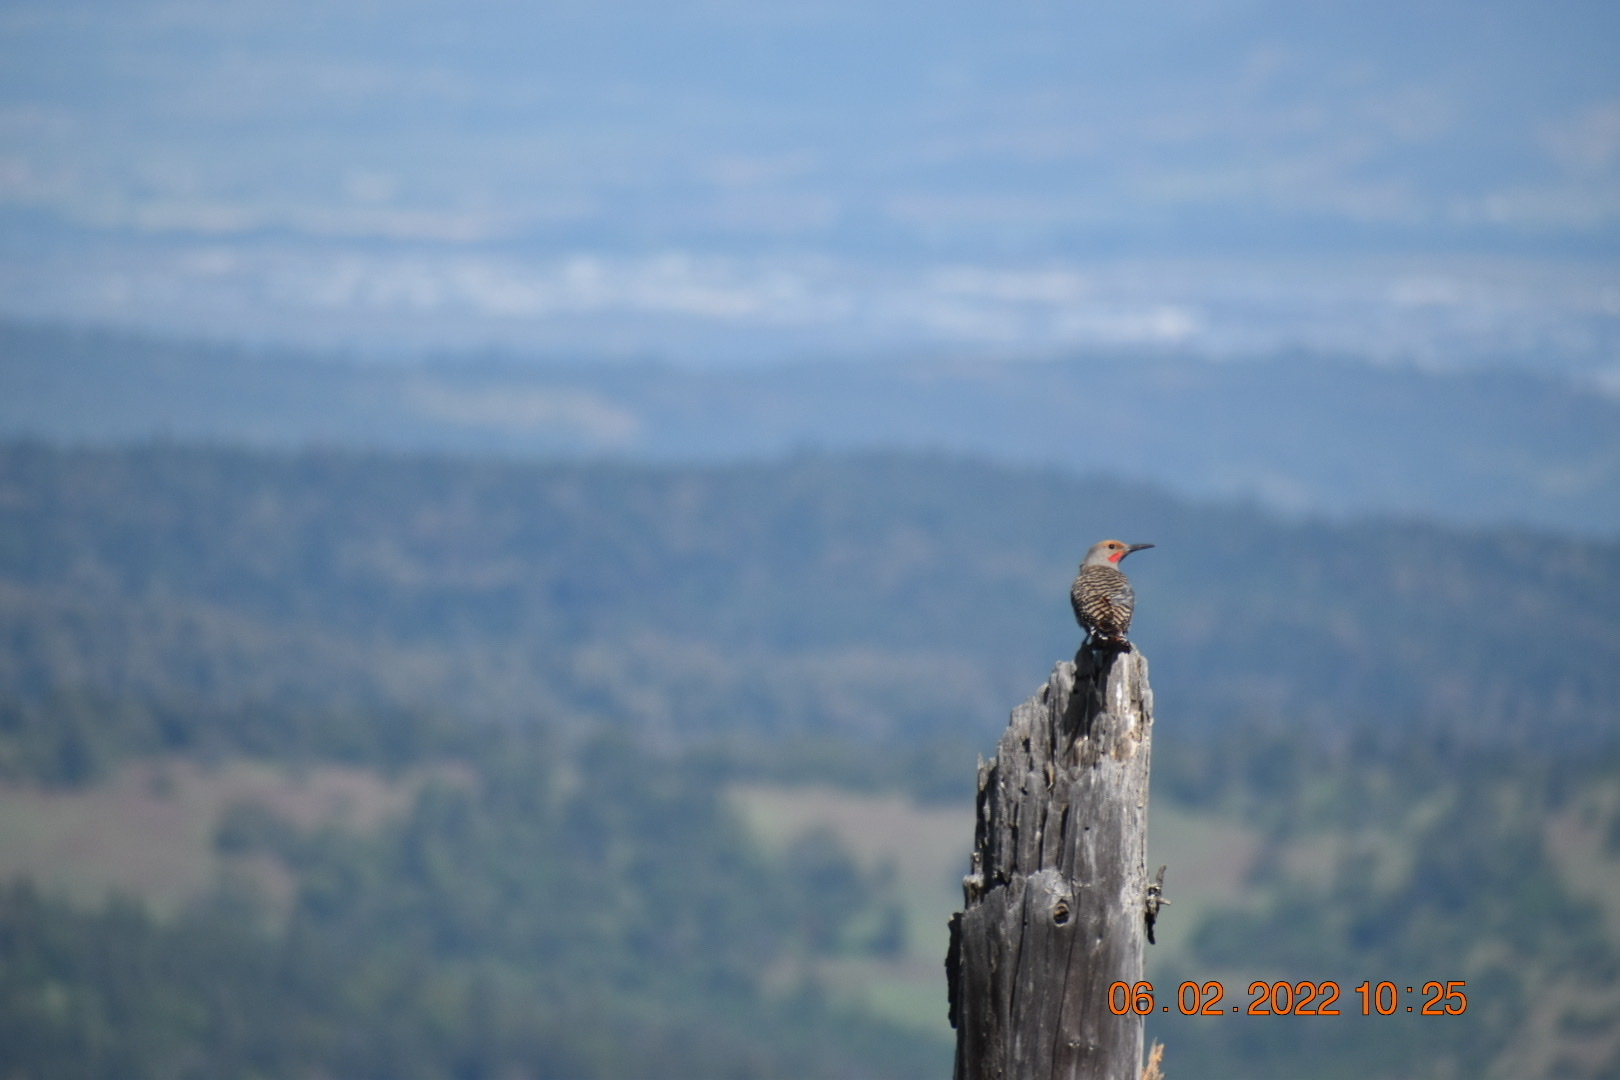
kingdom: Animalia
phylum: Chordata
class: Aves
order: Piciformes
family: Picidae
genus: Colaptes
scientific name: Colaptes auratus
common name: Northern flicker
